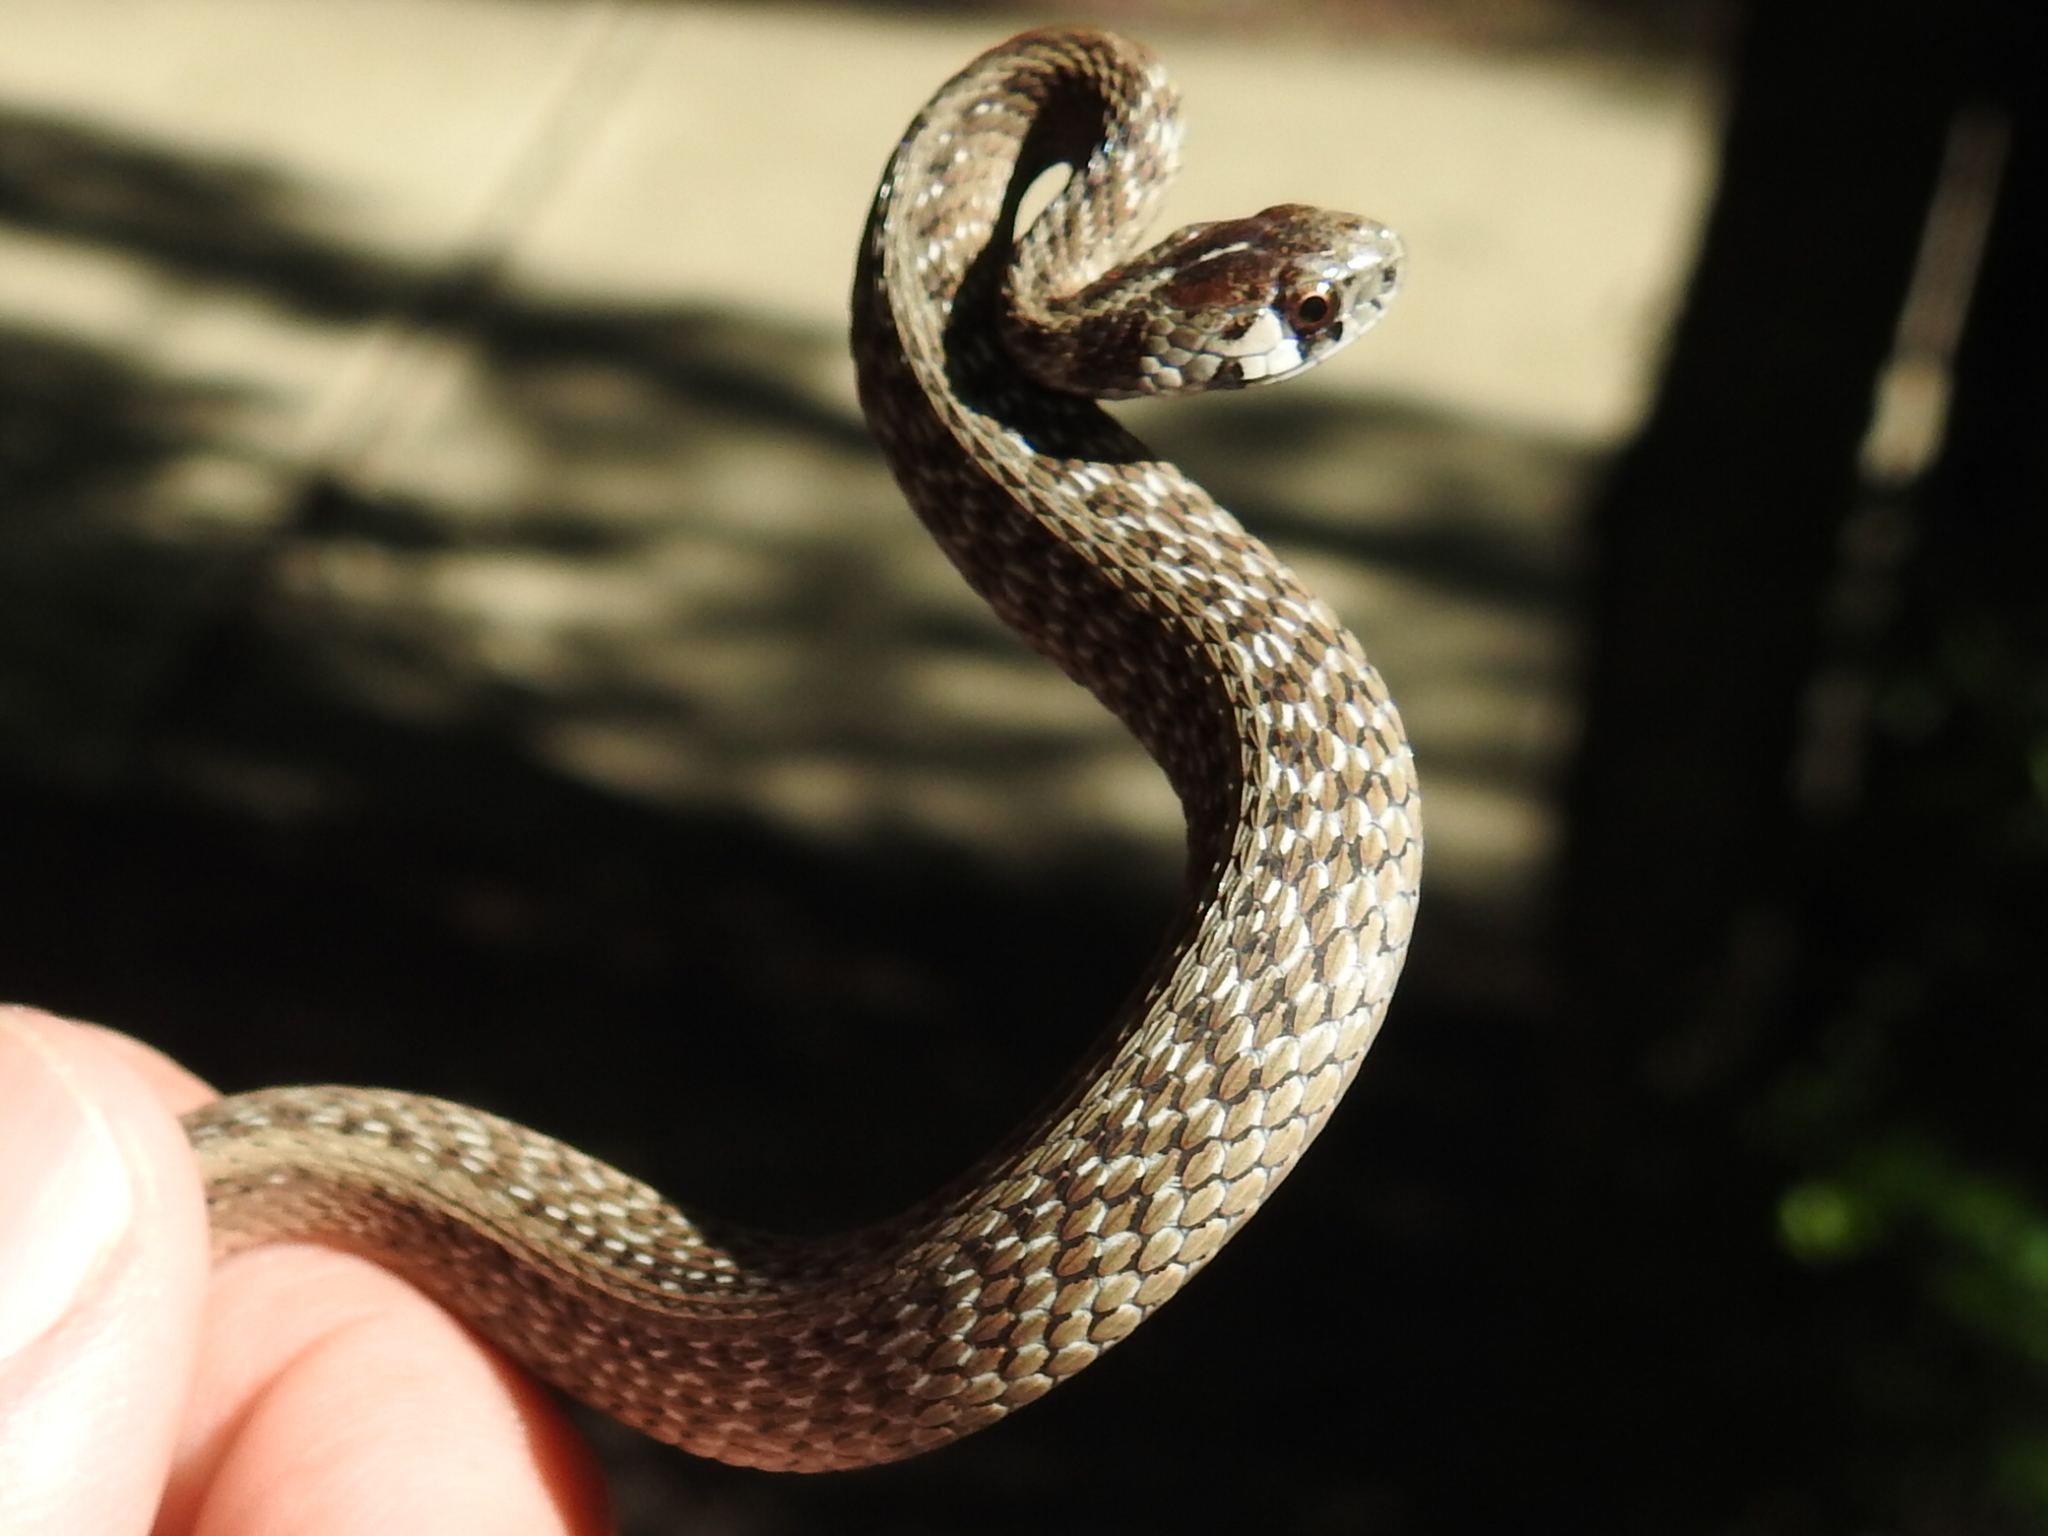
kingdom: Animalia
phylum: Chordata
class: Squamata
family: Colubridae
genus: Storeria
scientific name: Storeria dekayi
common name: (dekay’s) brown snake
